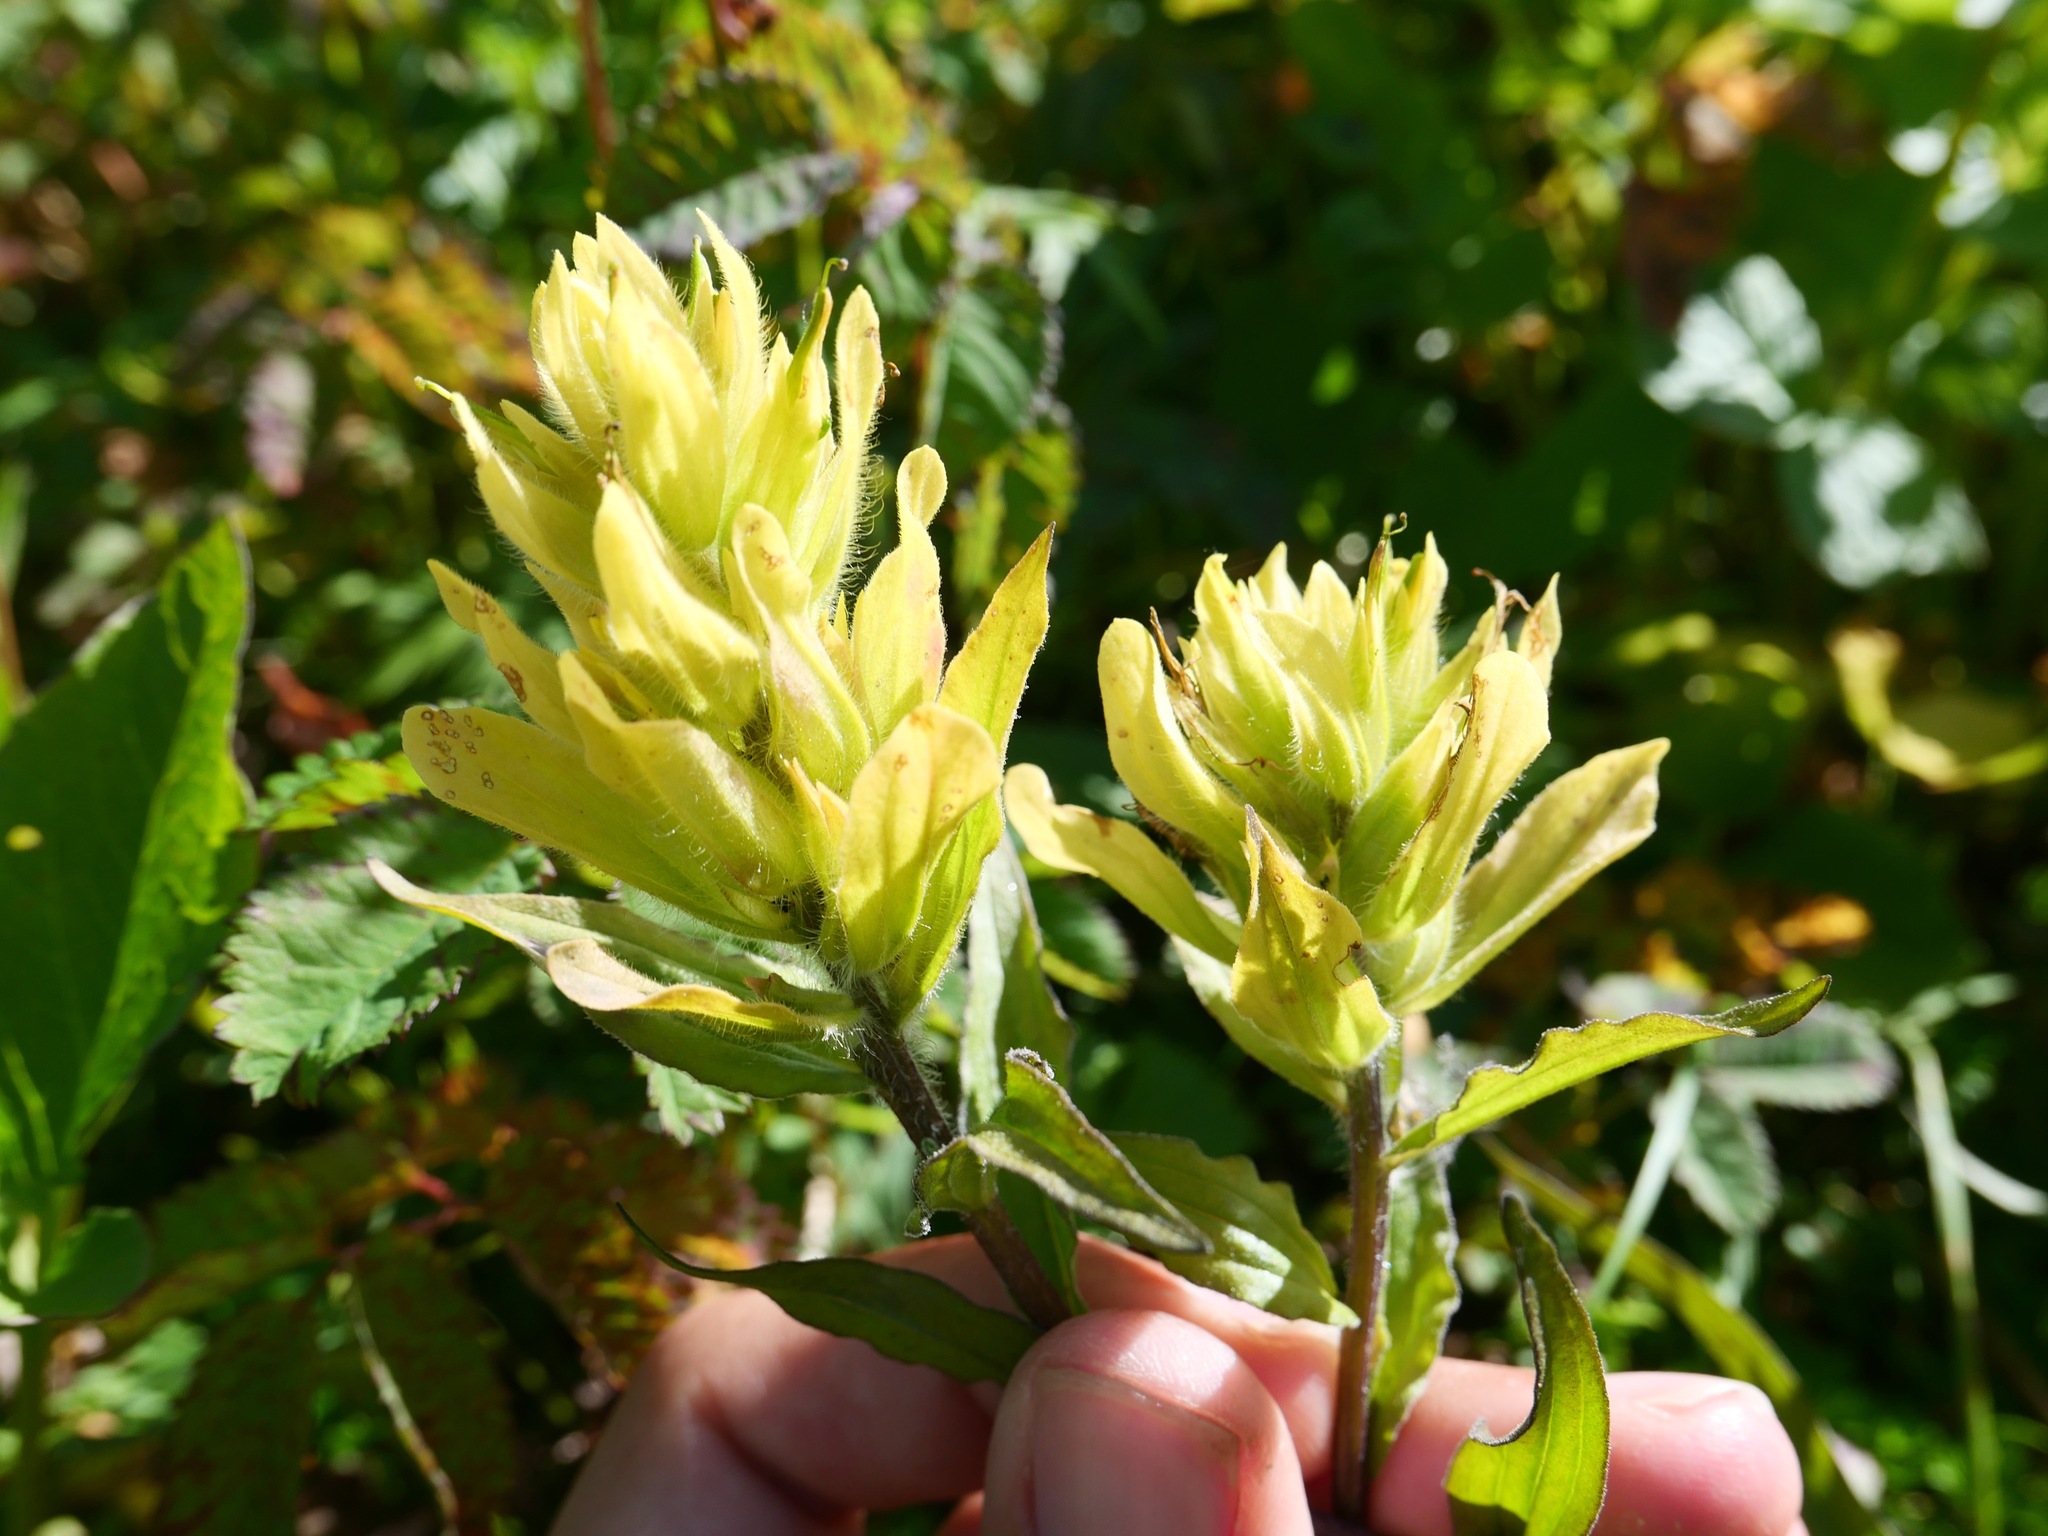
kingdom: Plantae
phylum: Tracheophyta
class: Magnoliopsida
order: Lamiales
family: Orobanchaceae
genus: Castilleja
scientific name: Castilleja unalaschcensis
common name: Unalaska paintbrush
